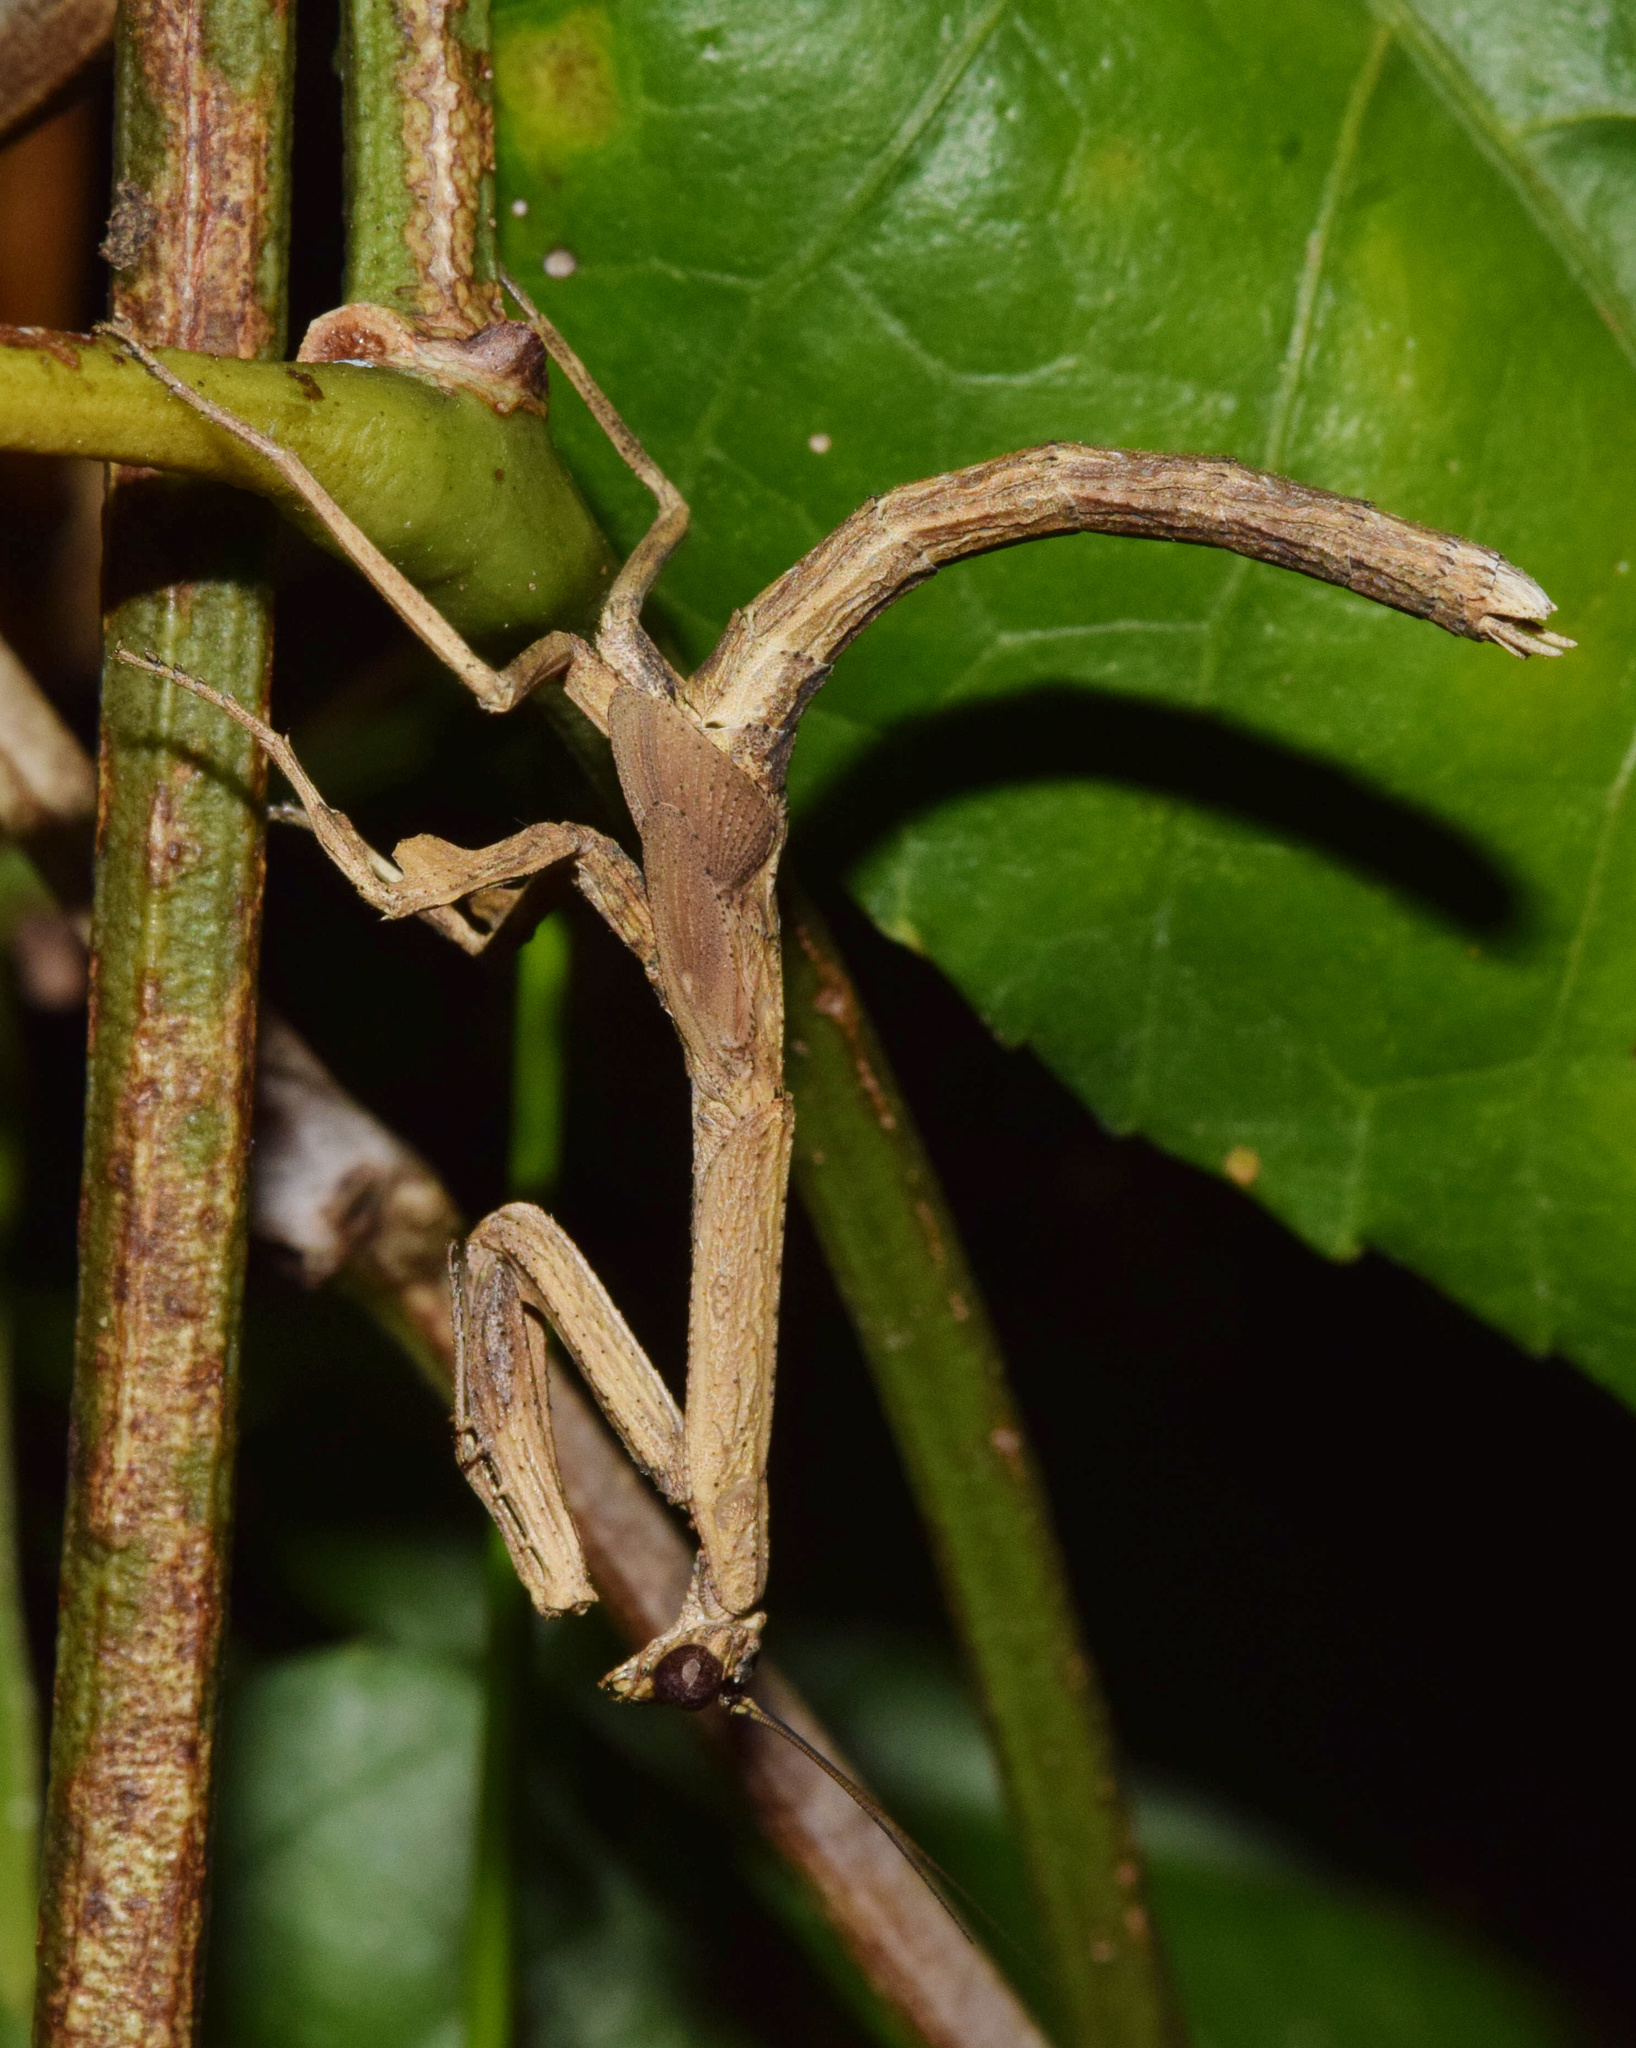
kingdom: Animalia
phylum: Arthropoda
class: Insecta
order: Mantodea
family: Deroplatyidae
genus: Popa
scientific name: Popa spurca
